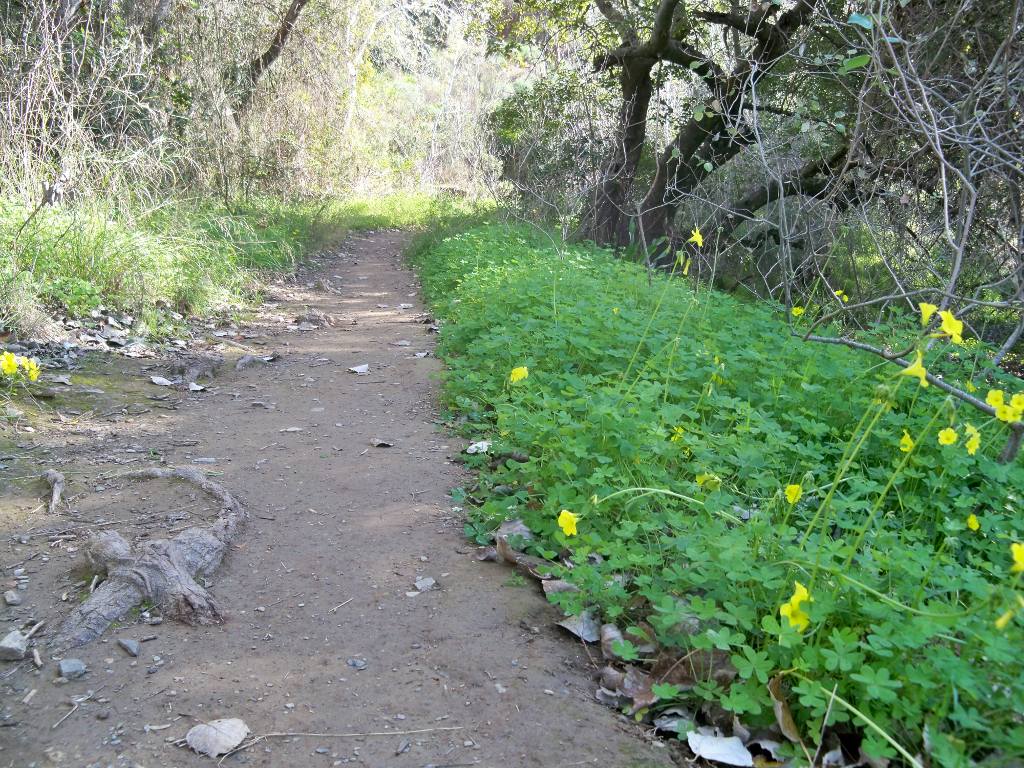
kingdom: Plantae
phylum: Tracheophyta
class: Magnoliopsida
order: Oxalidales
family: Oxalidaceae
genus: Oxalis
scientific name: Oxalis pes-caprae
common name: Bermuda-buttercup
